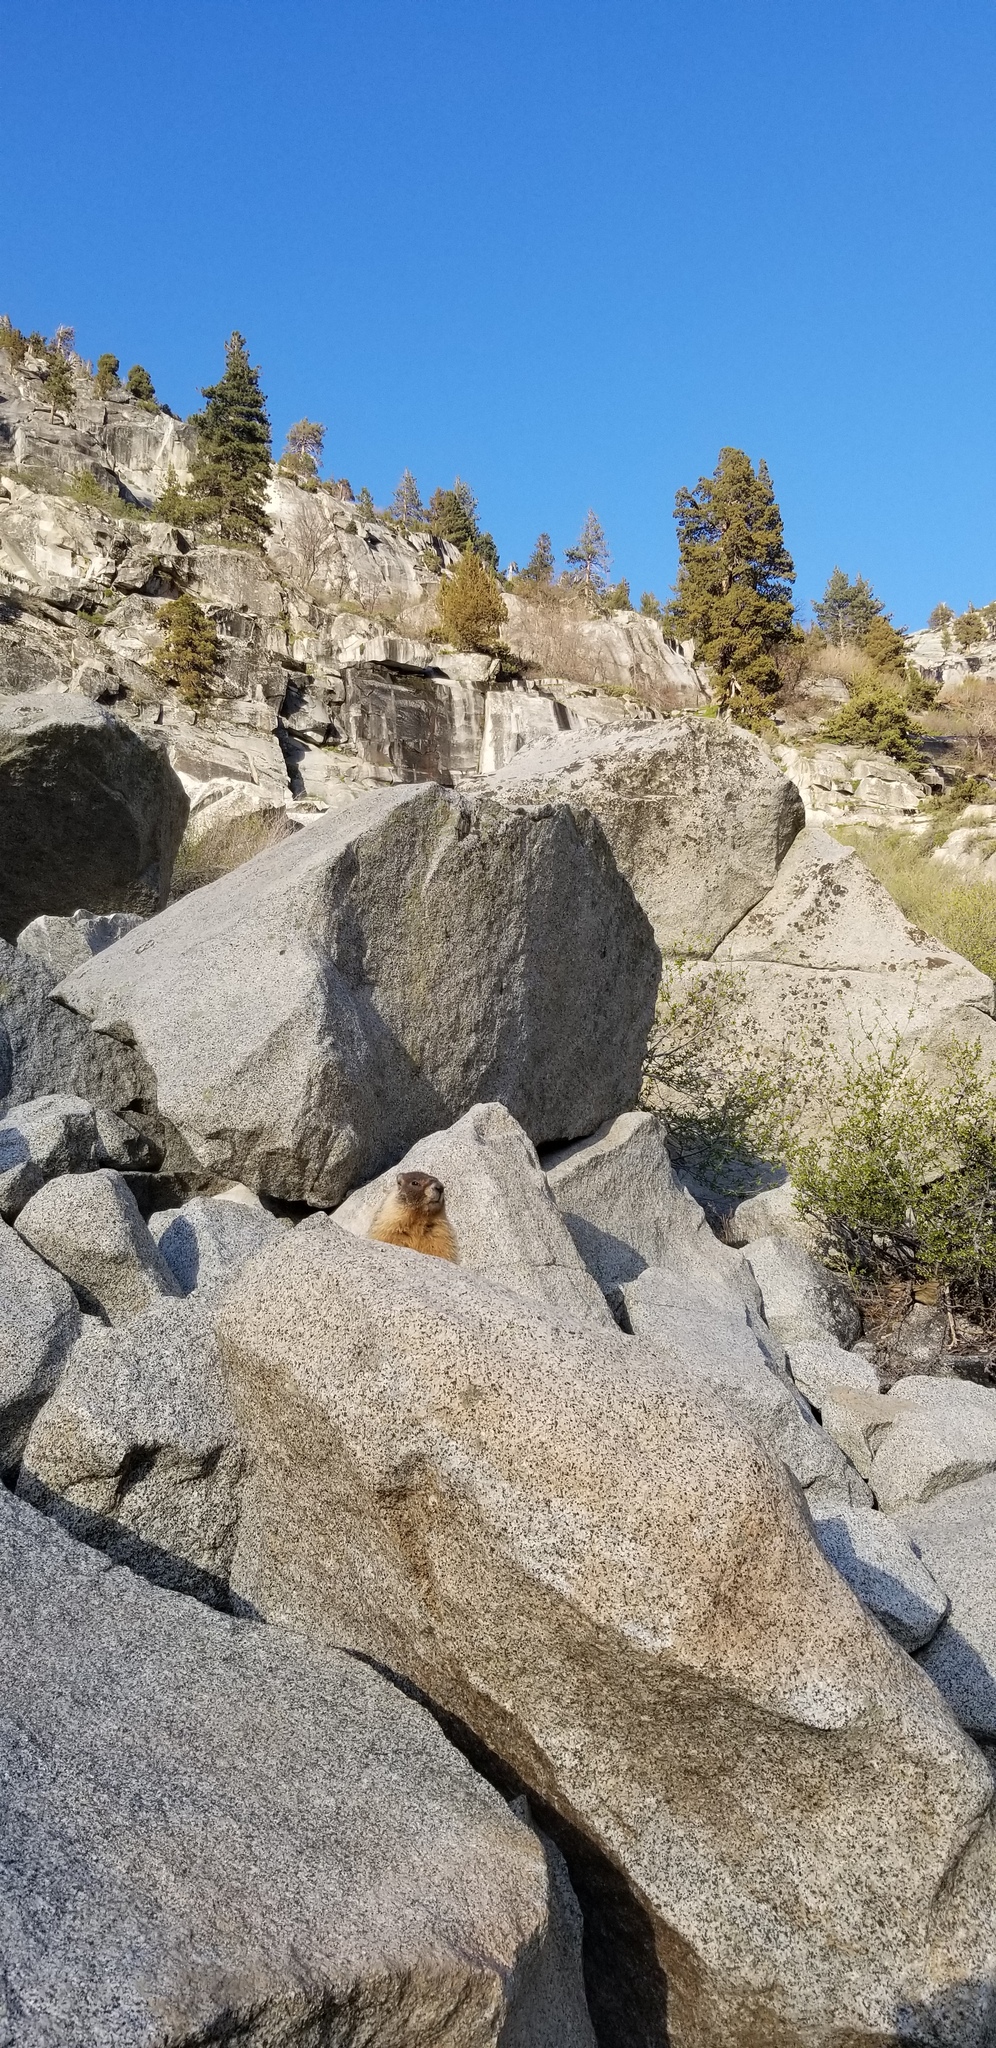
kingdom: Animalia
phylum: Chordata
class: Mammalia
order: Rodentia
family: Sciuridae
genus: Marmota
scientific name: Marmota flaviventris
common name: Yellow-bellied marmot
